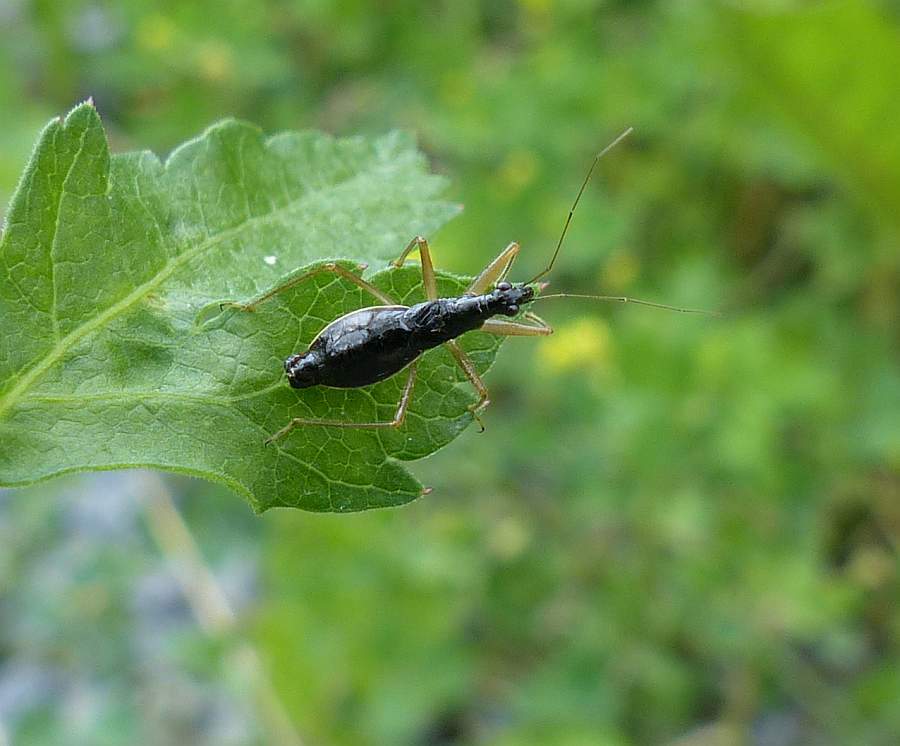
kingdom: Animalia
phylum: Arthropoda
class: Insecta
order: Hemiptera
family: Nabidae
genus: Nabis
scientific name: Nabis
